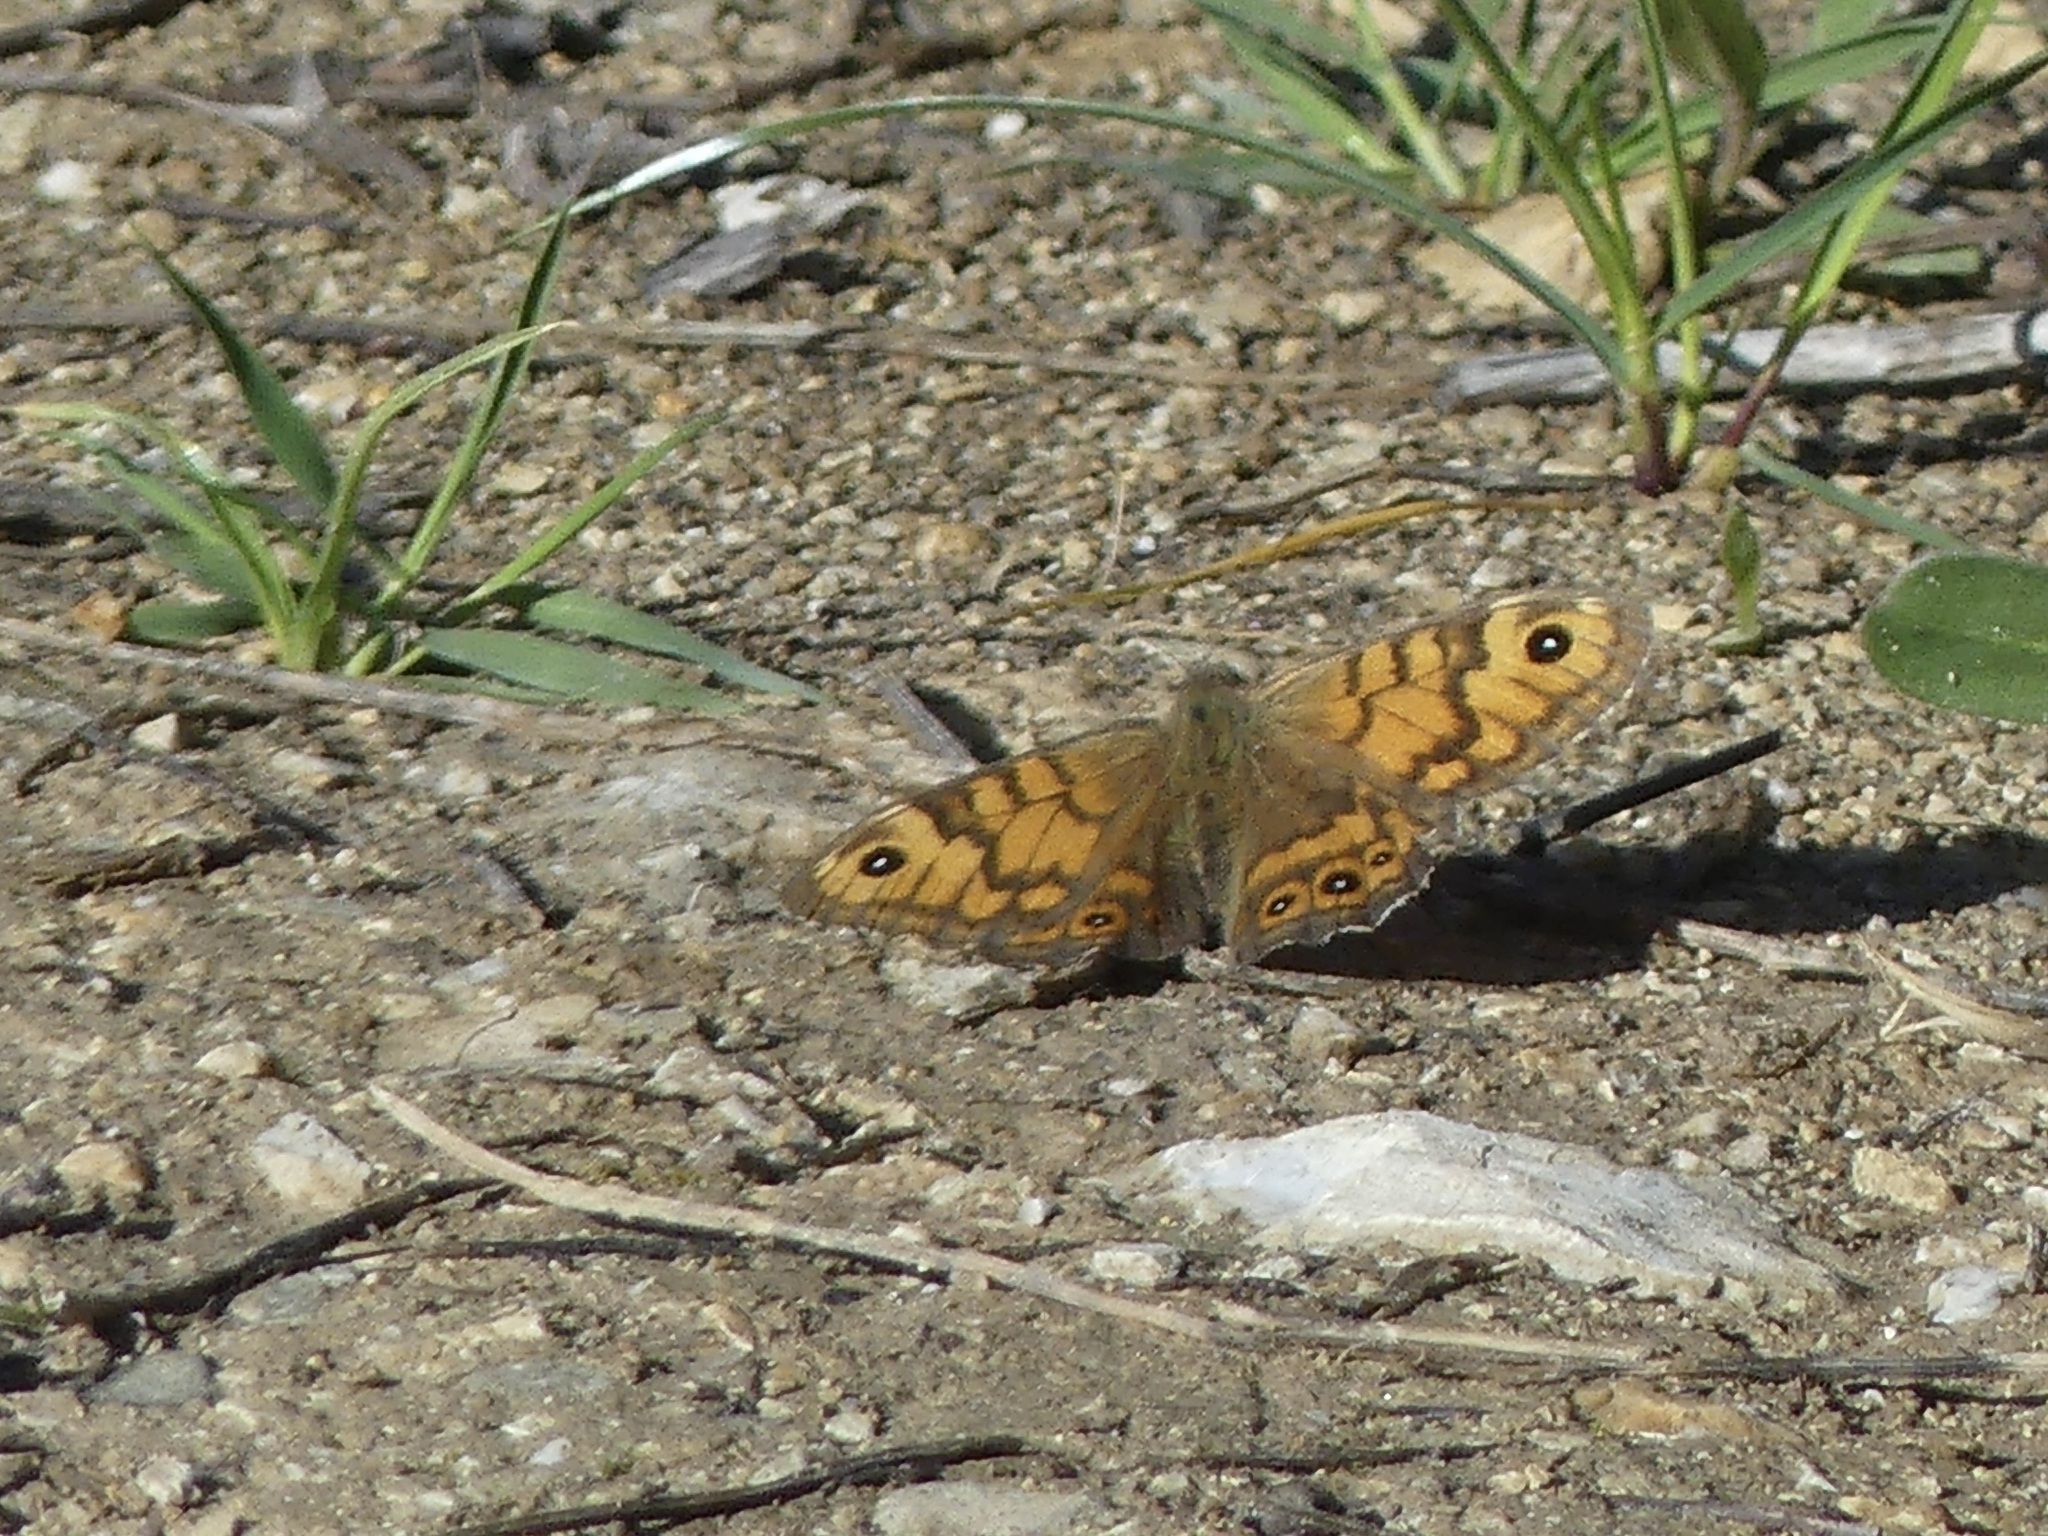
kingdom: Animalia
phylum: Arthropoda
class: Insecta
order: Lepidoptera
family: Nymphalidae
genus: Pararge
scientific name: Pararge Lasiommata megera
